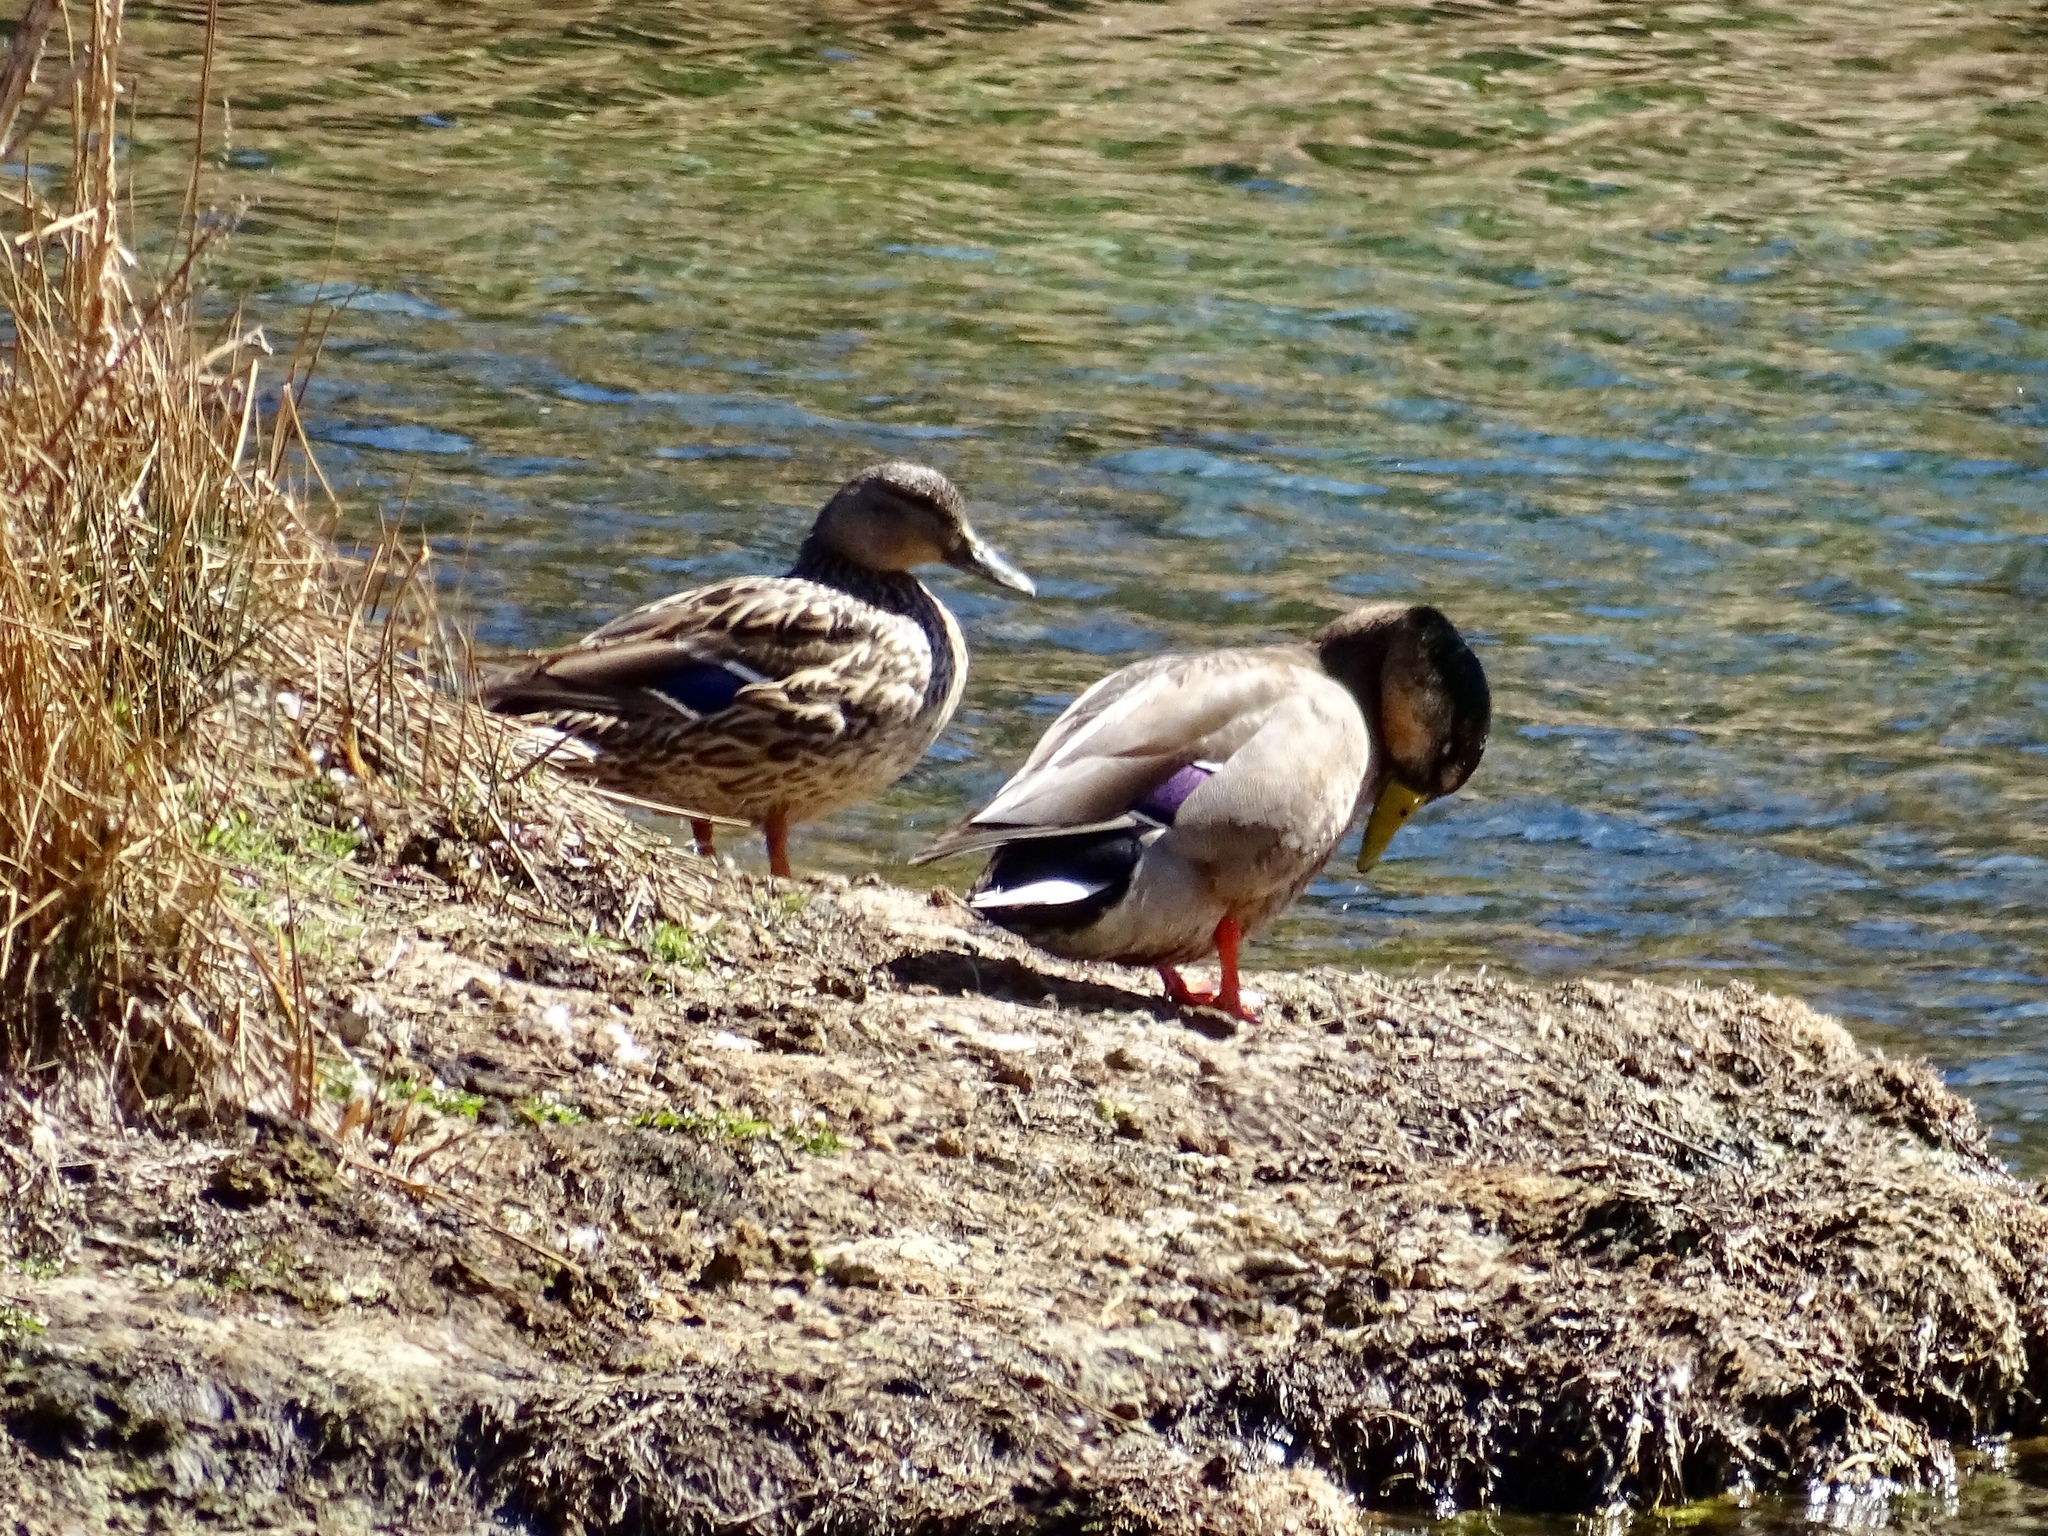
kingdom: Animalia
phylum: Chordata
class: Aves
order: Anseriformes
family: Anatidae
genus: Anas
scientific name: Anas
